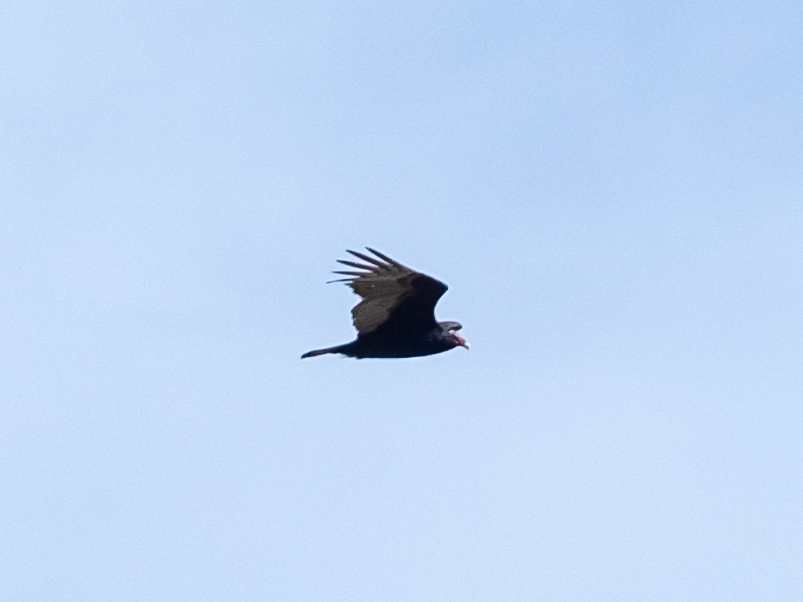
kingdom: Animalia
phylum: Chordata
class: Aves
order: Accipitriformes
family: Cathartidae
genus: Cathartes
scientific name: Cathartes aura
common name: Turkey vulture
